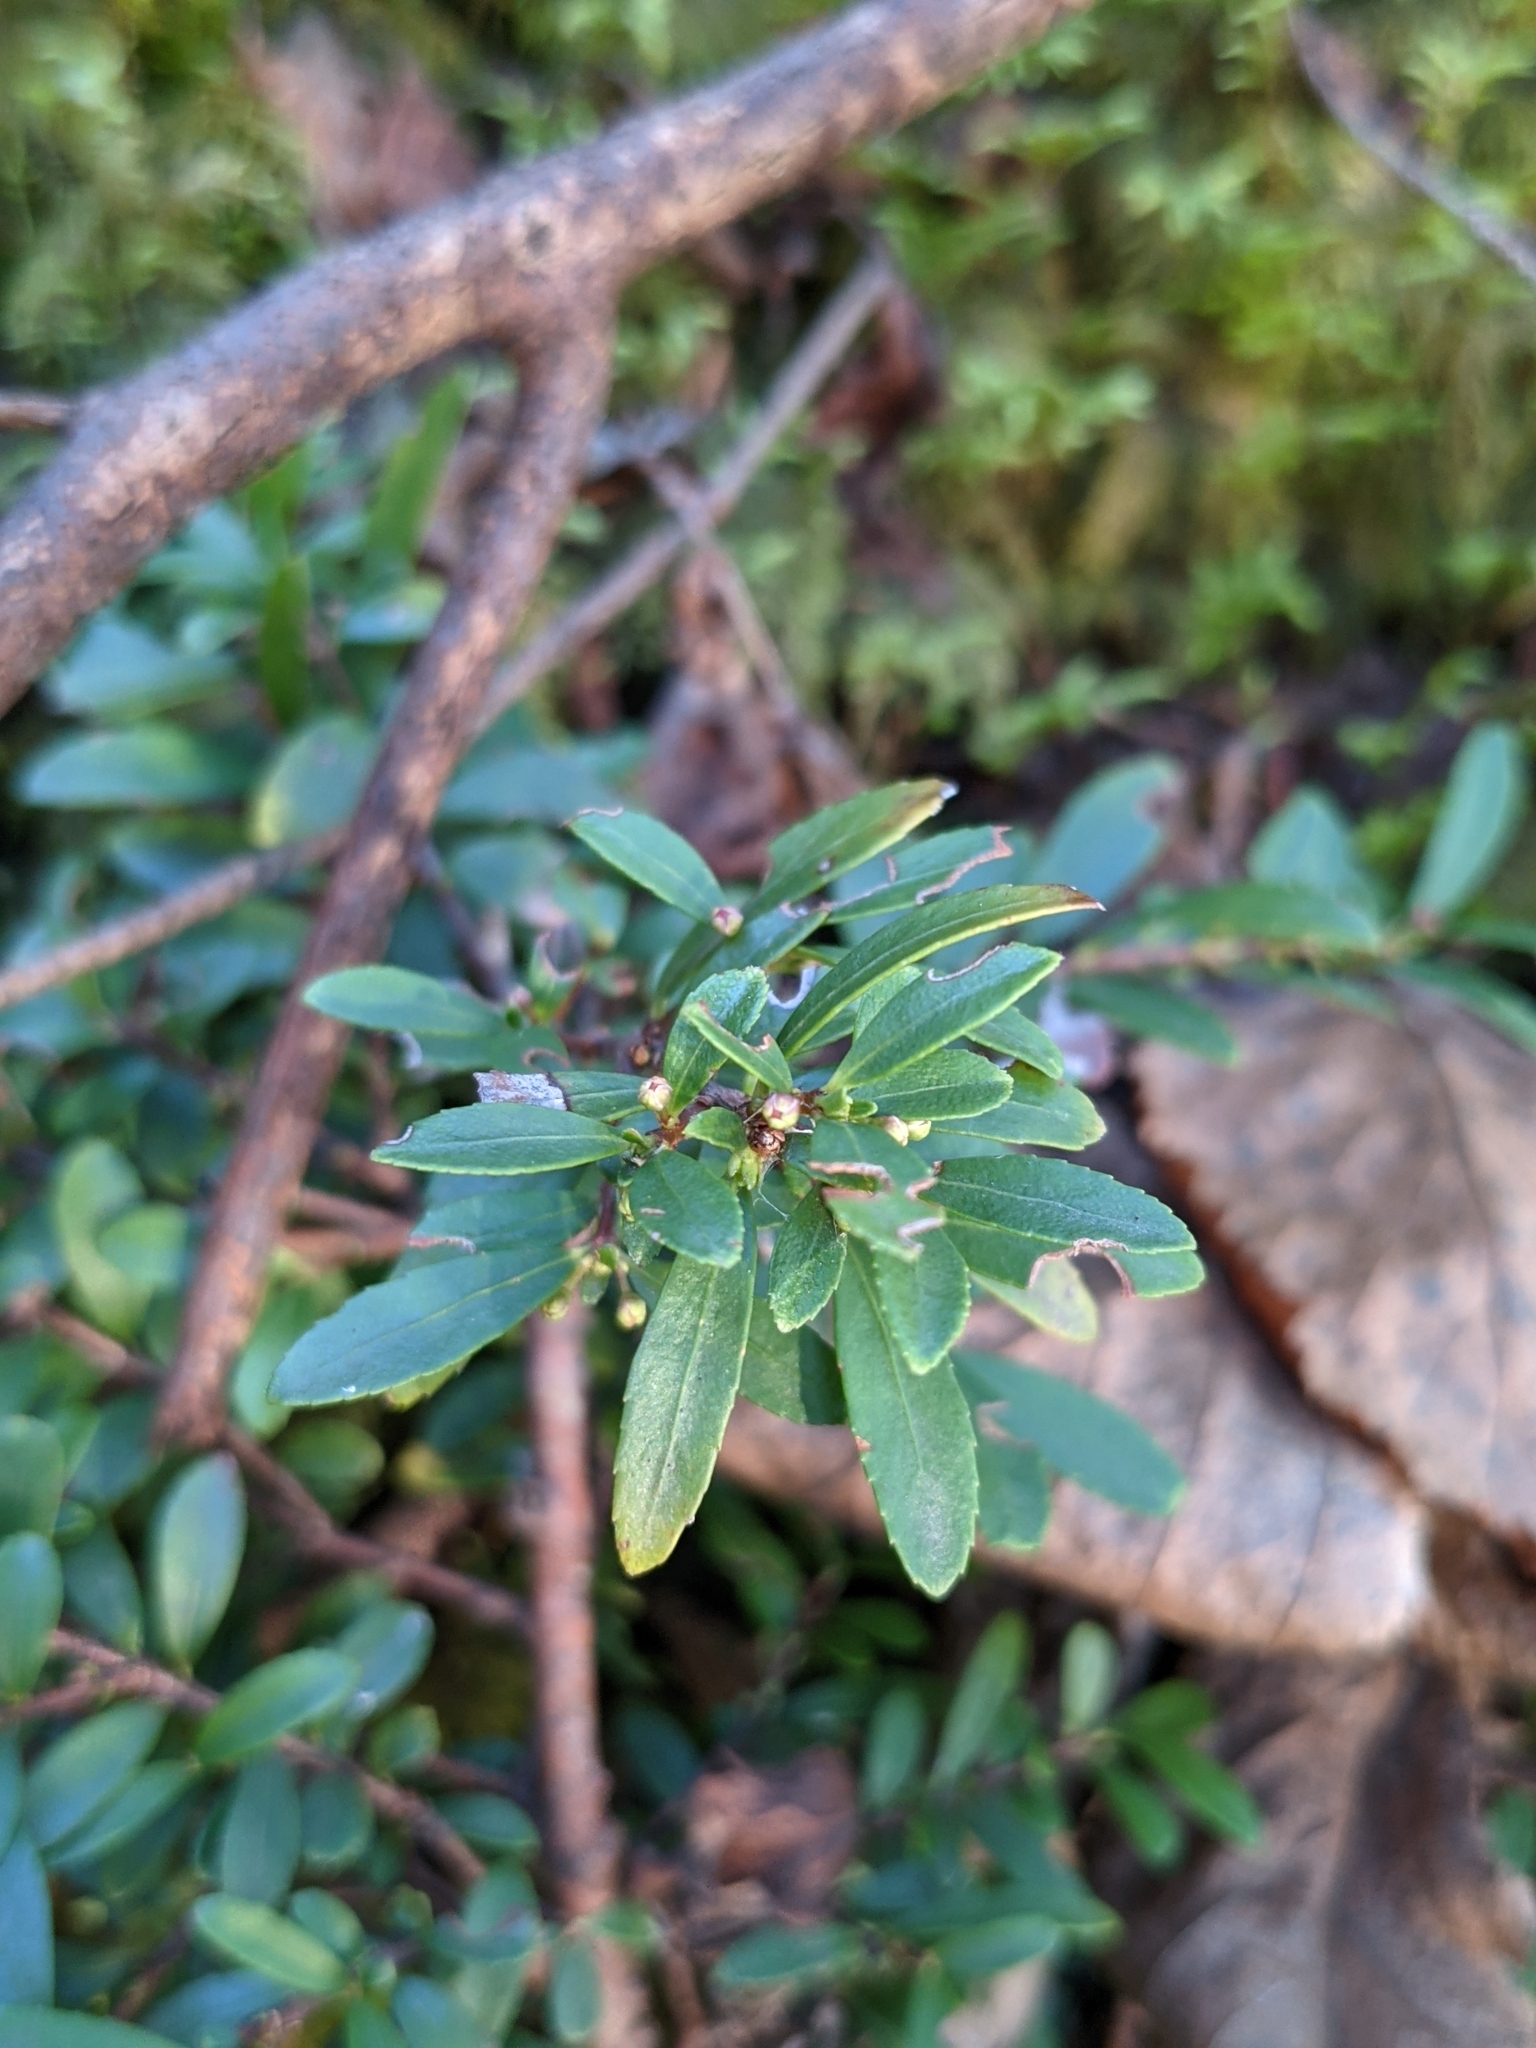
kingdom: Plantae
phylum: Tracheophyta
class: Magnoliopsida
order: Celastrales
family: Celastraceae
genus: Paxistima
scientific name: Paxistima myrsinites
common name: Mountain-lover
